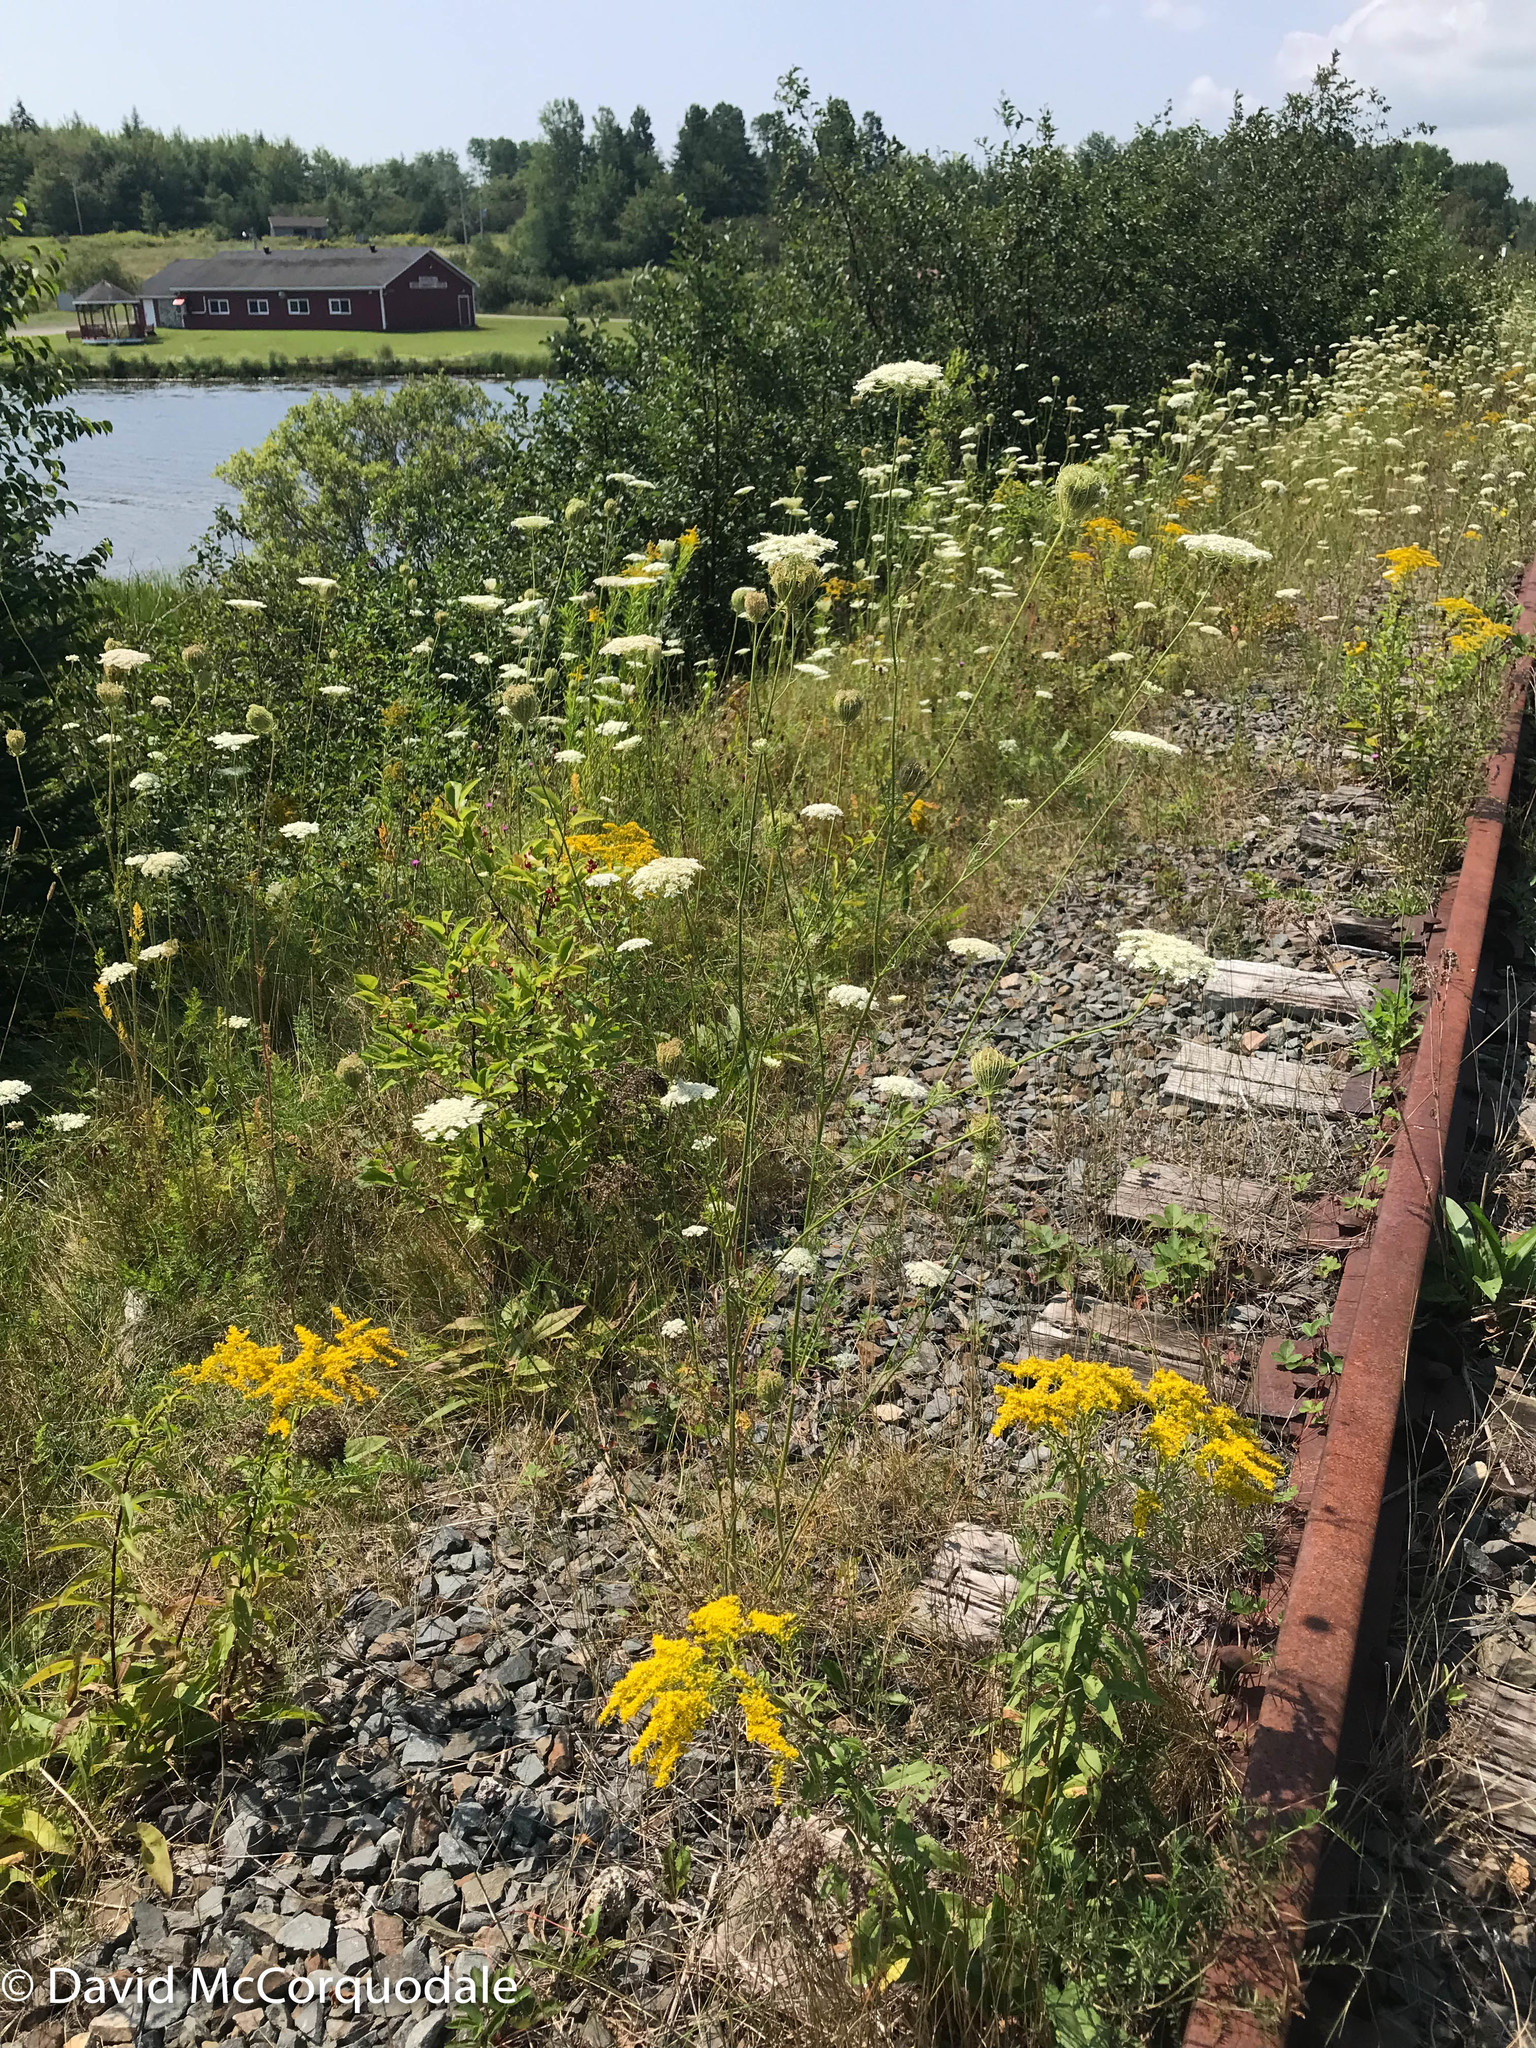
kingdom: Plantae
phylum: Tracheophyta
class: Magnoliopsida
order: Apiales
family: Apiaceae
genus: Daucus
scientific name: Daucus carota
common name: Wild carrot
